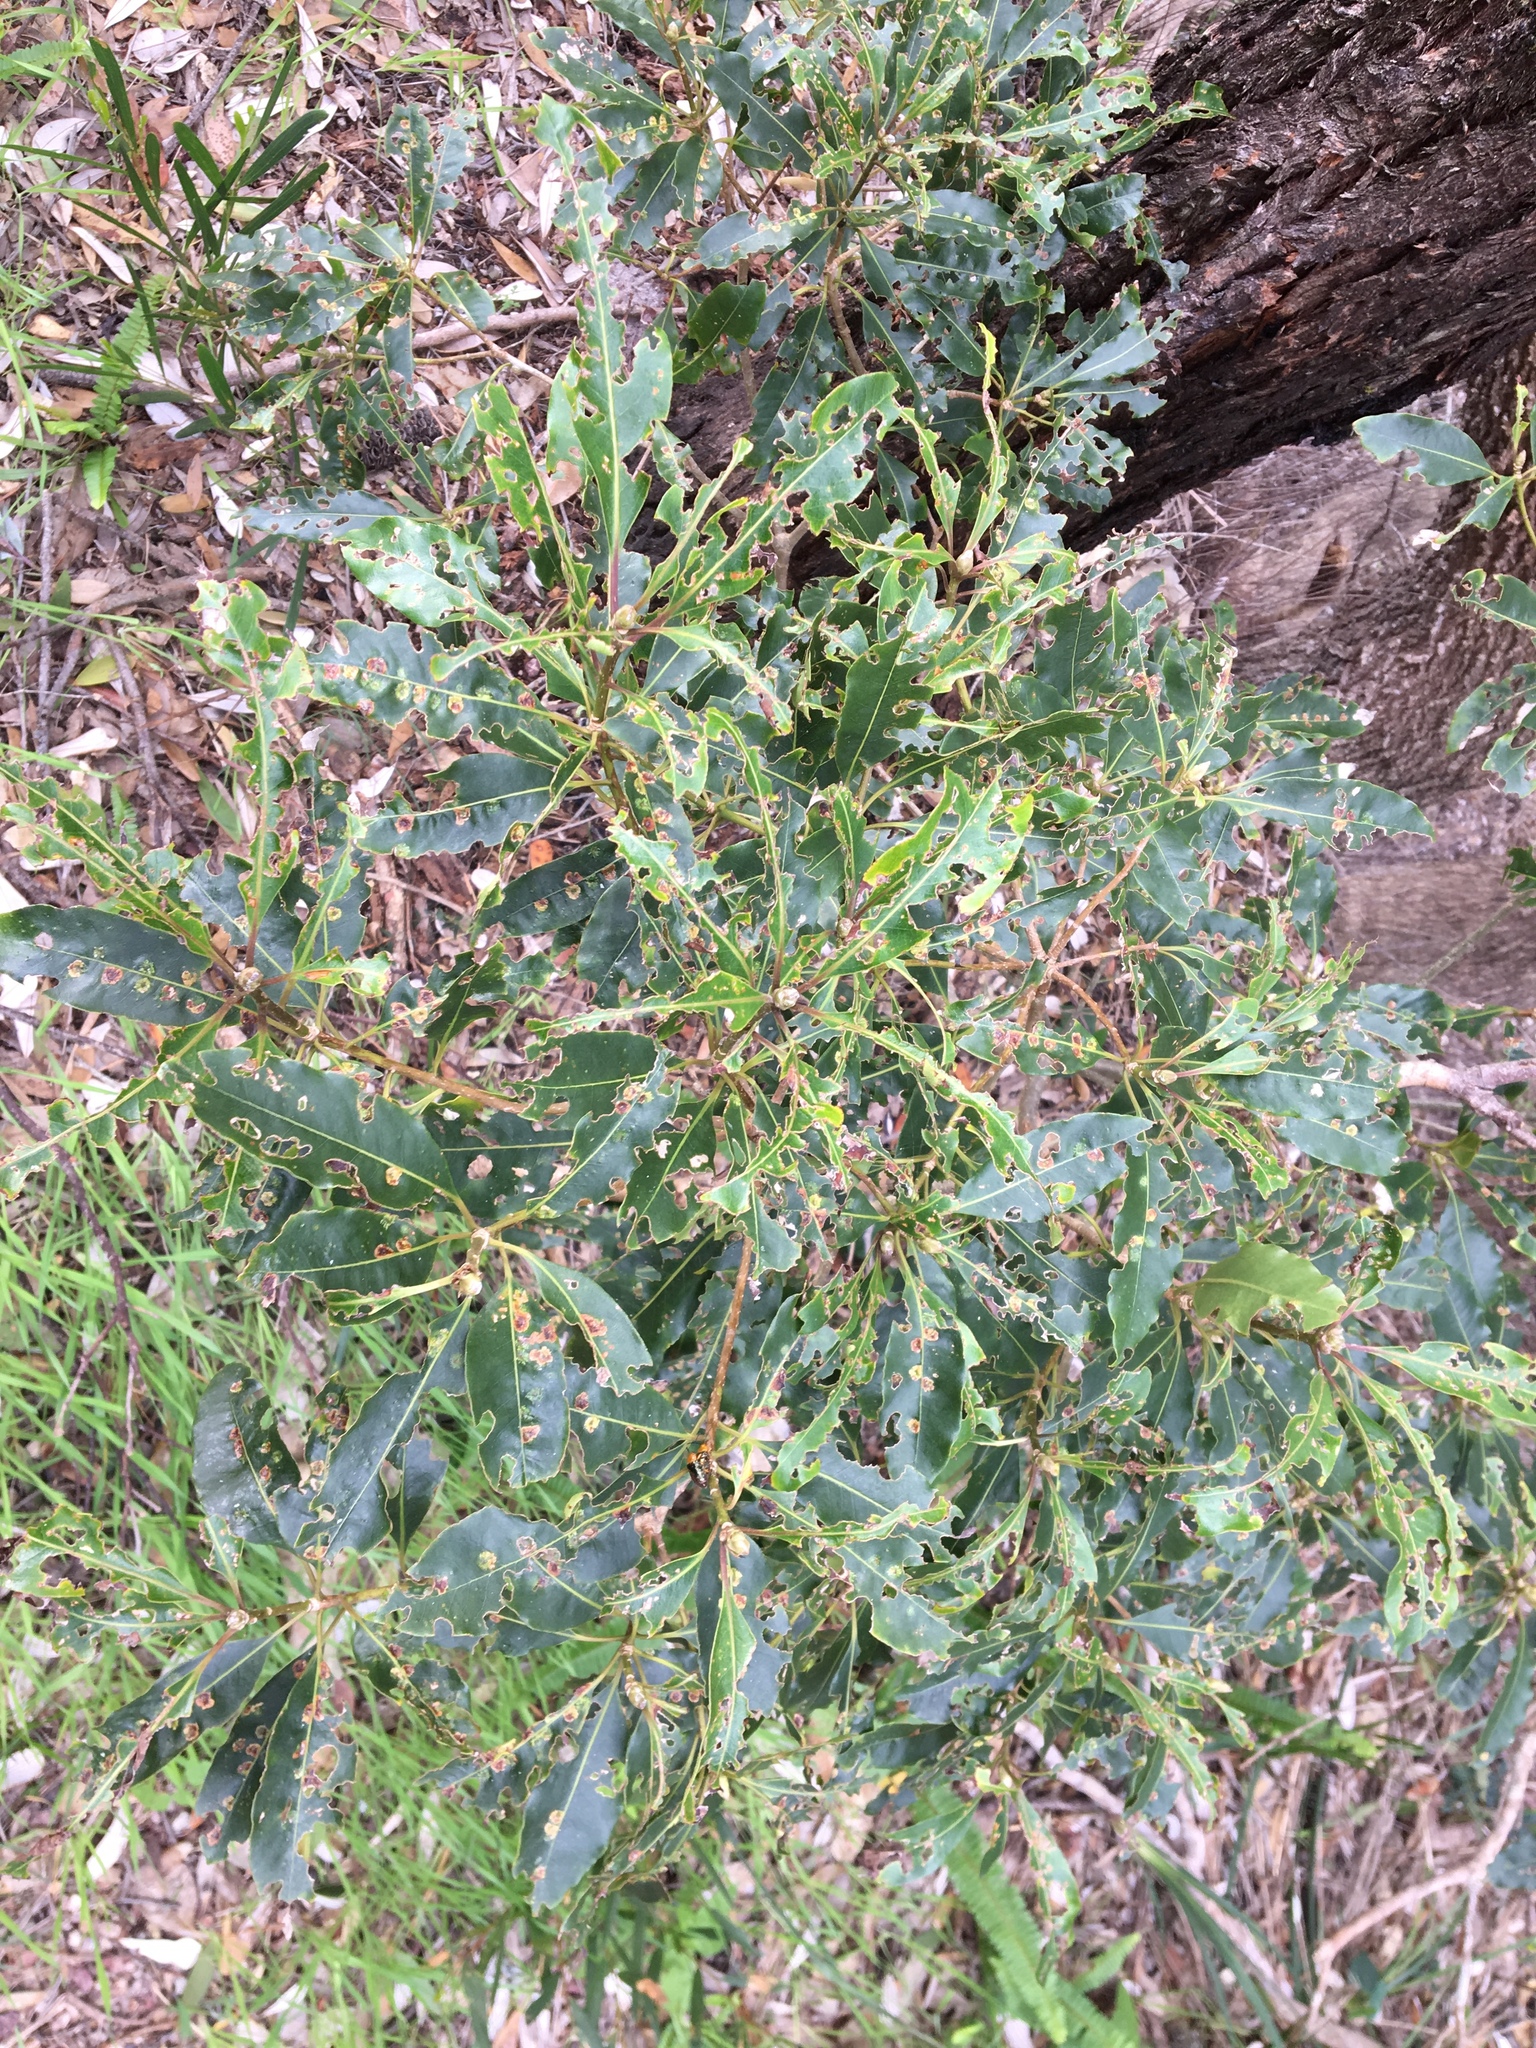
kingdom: Animalia
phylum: Arthropoda
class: Insecta
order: Diptera
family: Agromyzidae
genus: Phytoliriomyza
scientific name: Phytoliriomyza pittosporophylli
